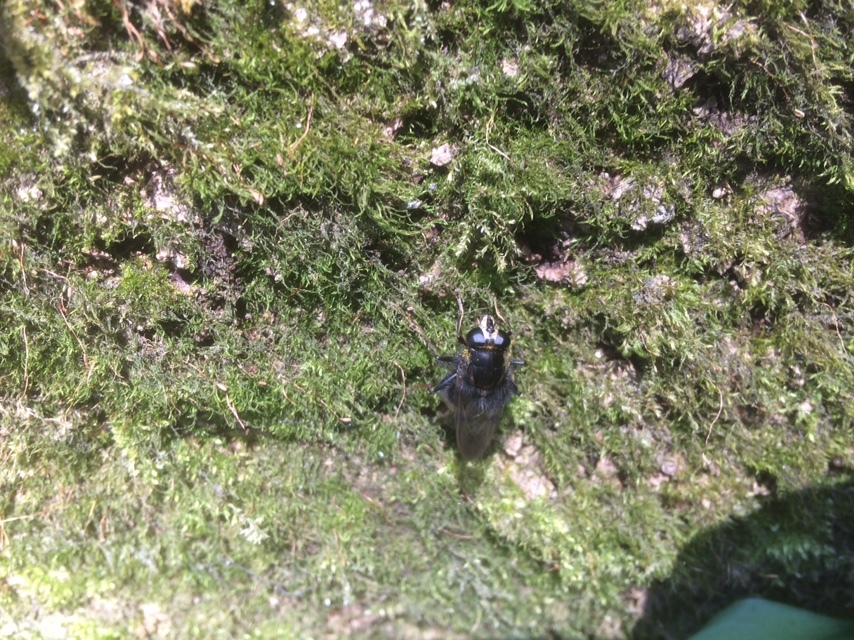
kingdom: Animalia
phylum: Arthropoda
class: Insecta
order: Diptera
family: Syrphidae
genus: Criorhina
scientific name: Criorhina ranunculi
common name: Large bear hoverfly
